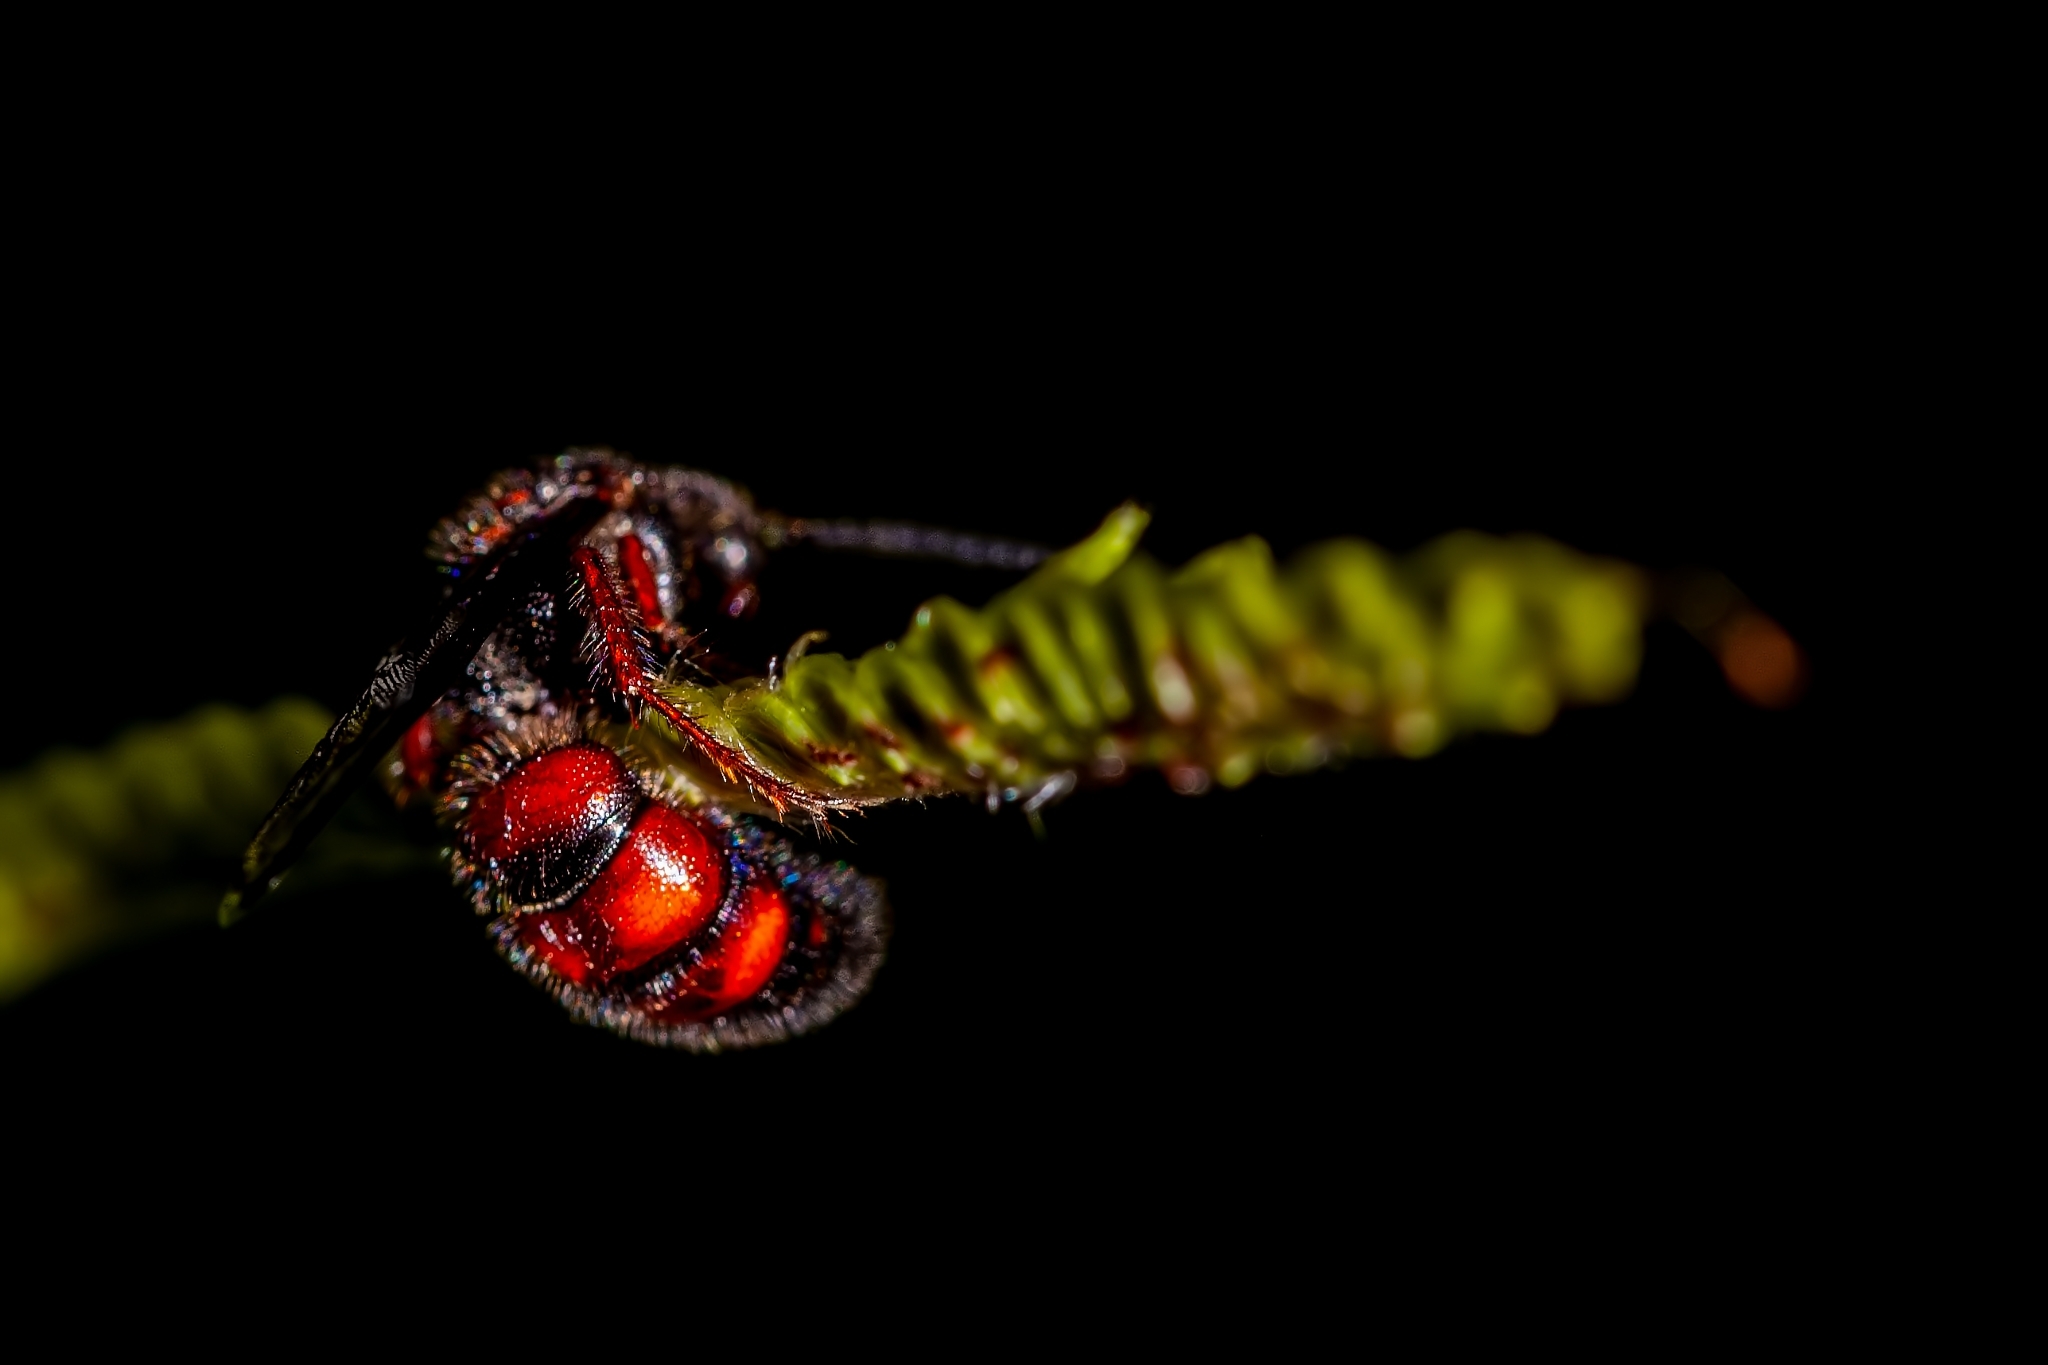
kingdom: Animalia
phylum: Arthropoda
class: Insecta
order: Hymenoptera
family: Scoliidae
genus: Scolia
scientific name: Scolia nobilitata
